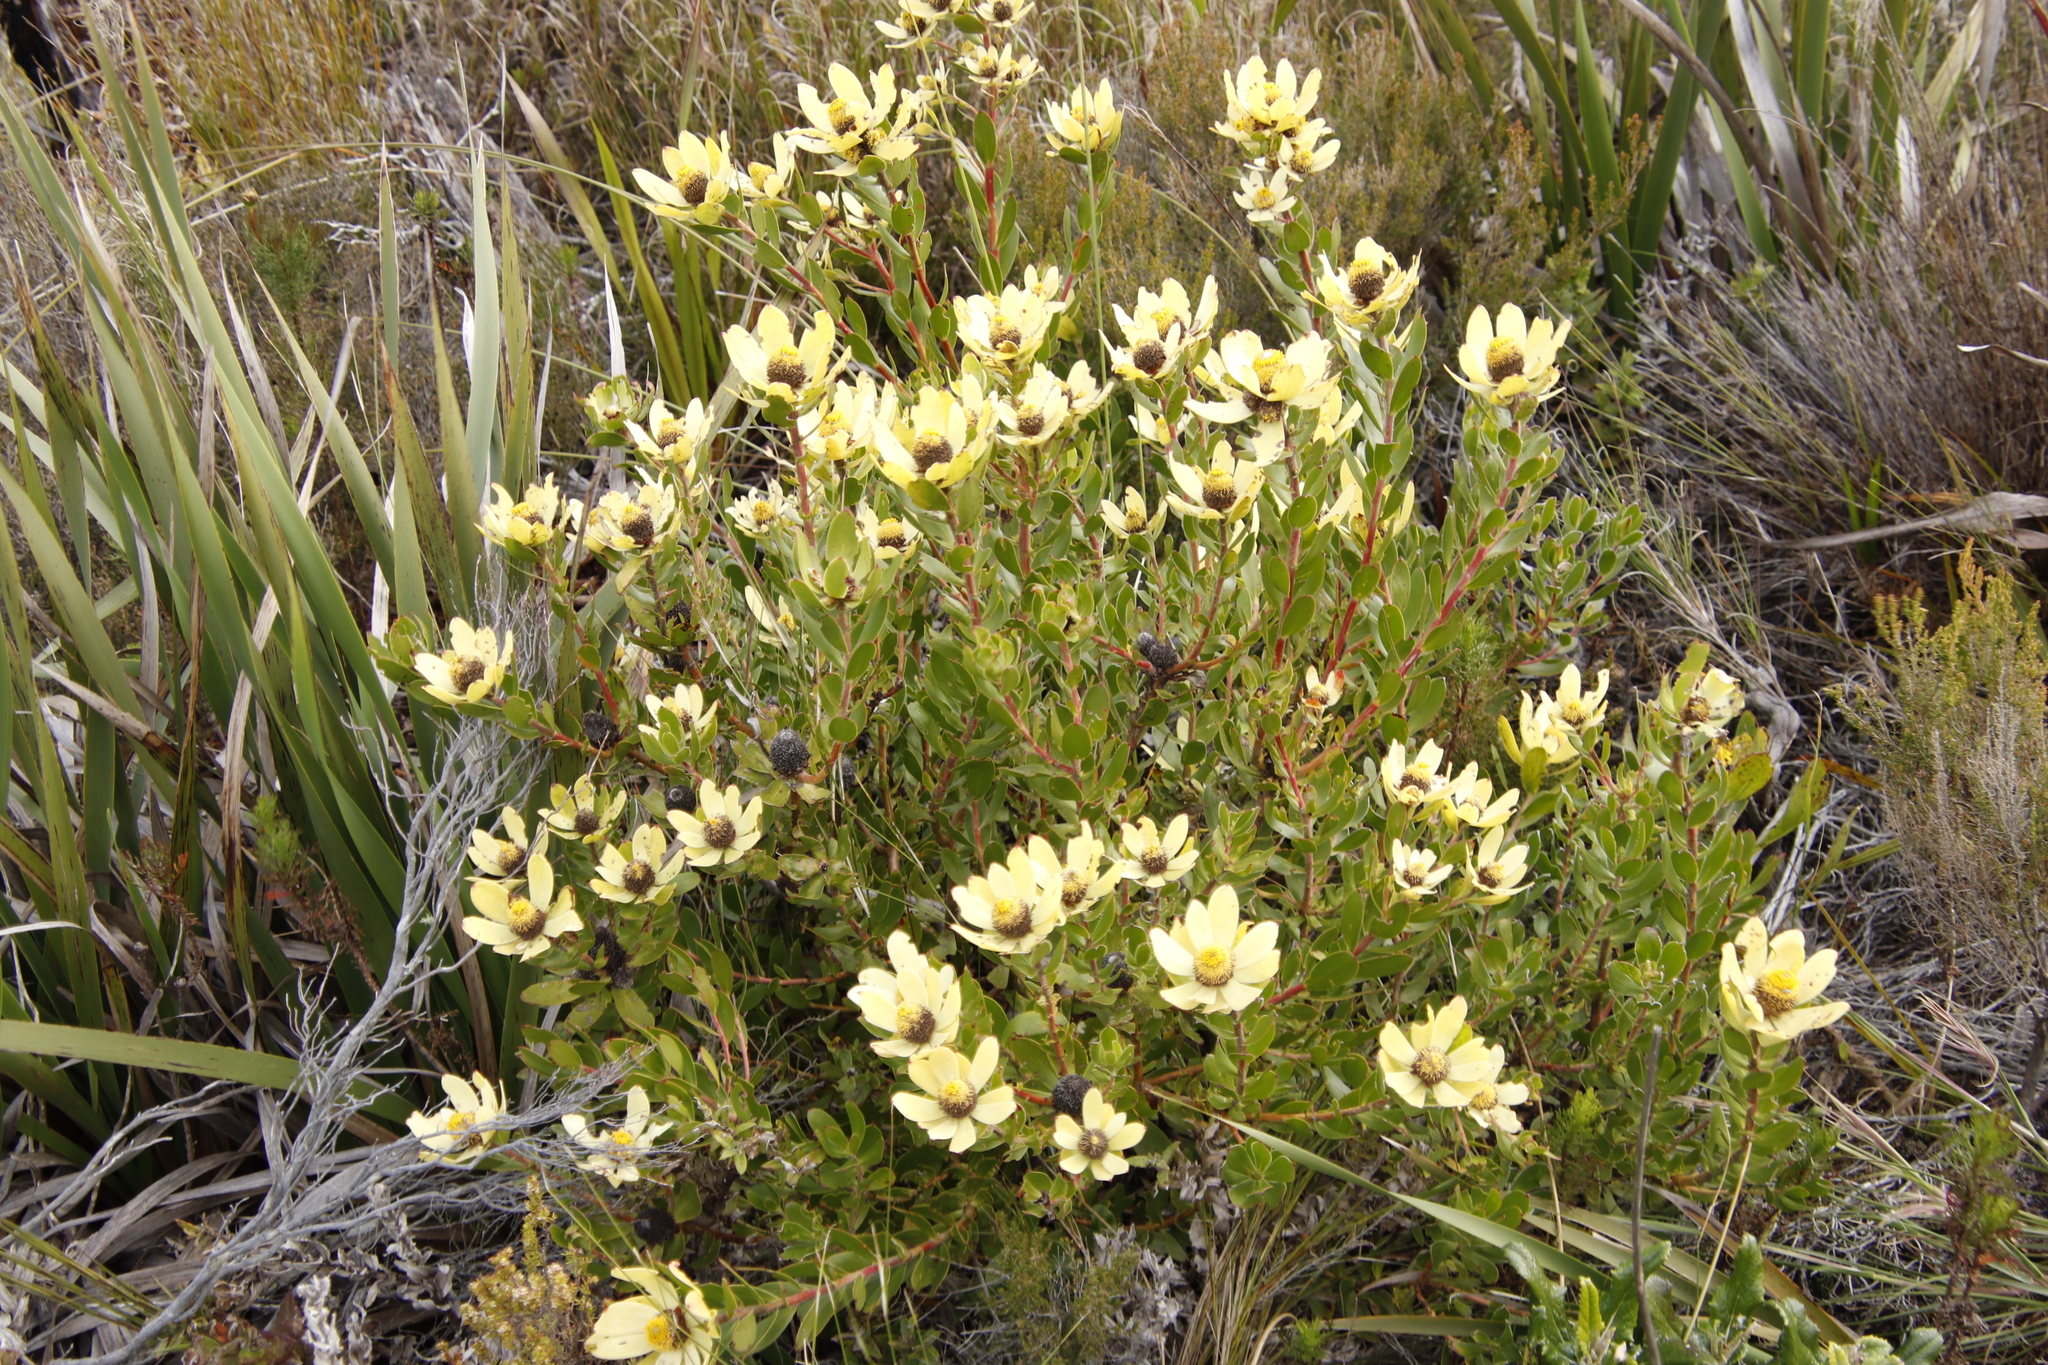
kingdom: Plantae
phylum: Tracheophyta
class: Magnoliopsida
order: Proteales
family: Proteaceae
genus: Leucadendron
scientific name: Leucadendron strobilinum
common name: Mountain rose
